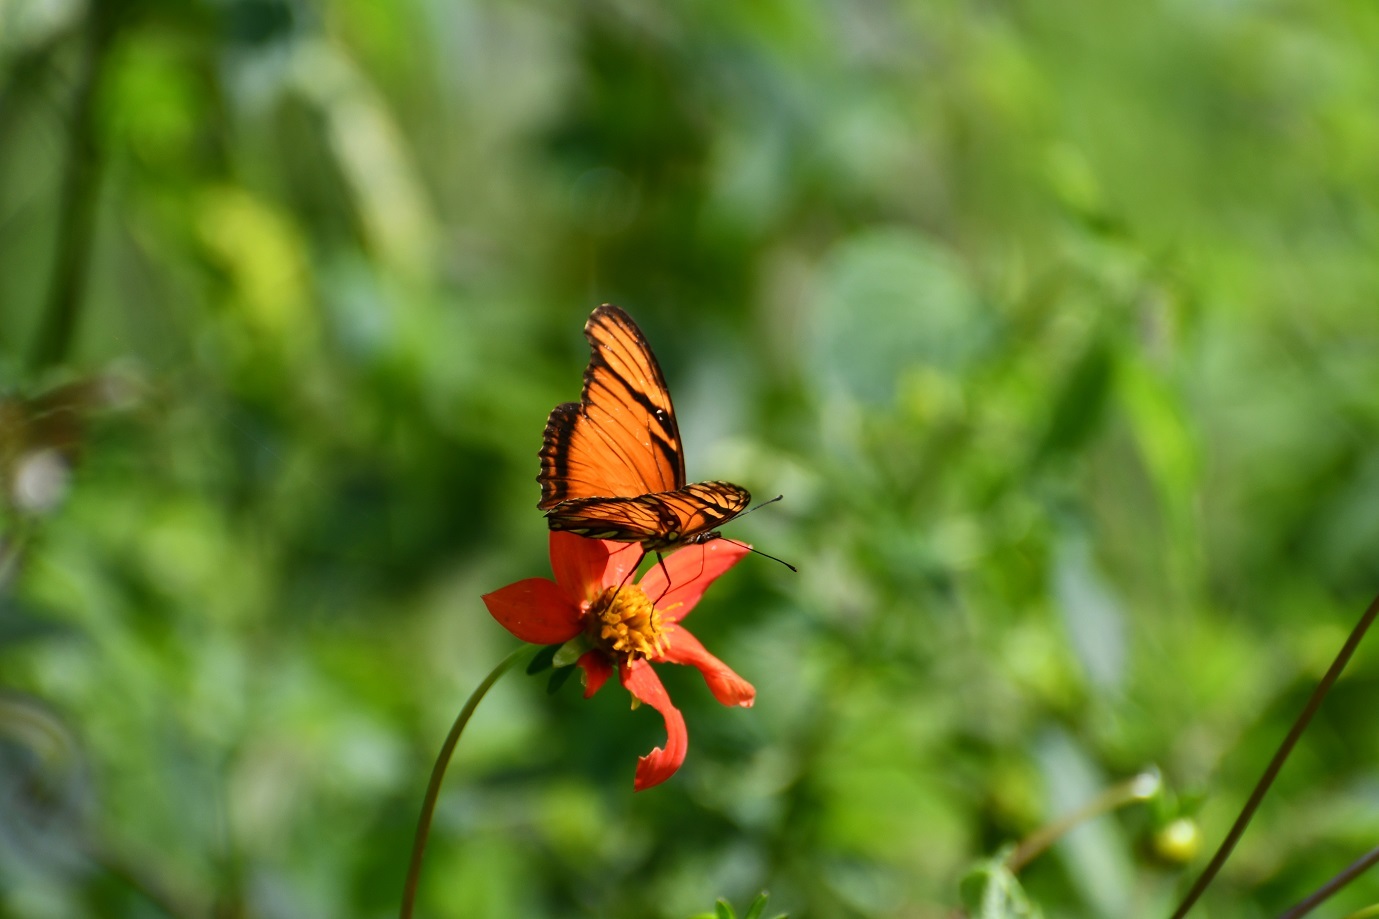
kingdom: Animalia
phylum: Arthropoda
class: Insecta
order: Lepidoptera
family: Nymphalidae
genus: Dione
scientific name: Dione juno
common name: Juno silverspot
